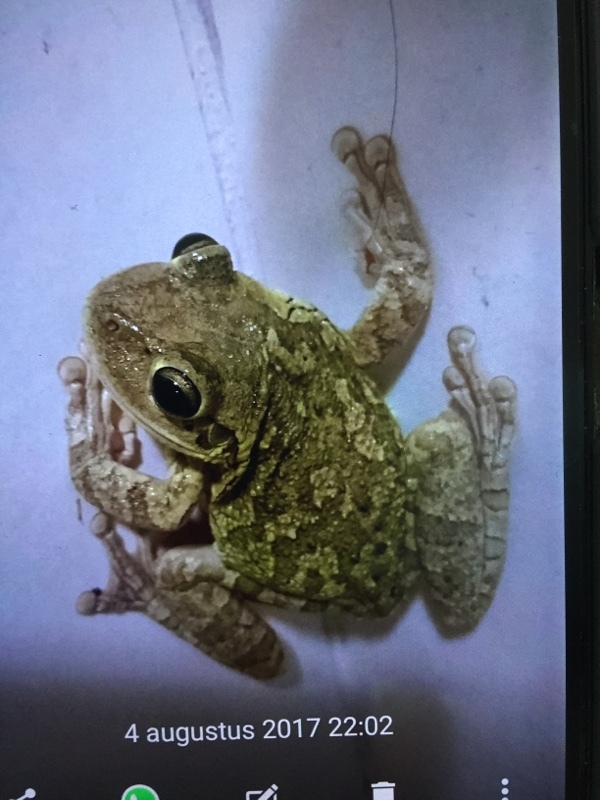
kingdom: Animalia
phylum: Chordata
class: Amphibia
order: Anura
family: Hylidae
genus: Osteopilus
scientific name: Osteopilus septentrionalis
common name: Cuban treefrog
